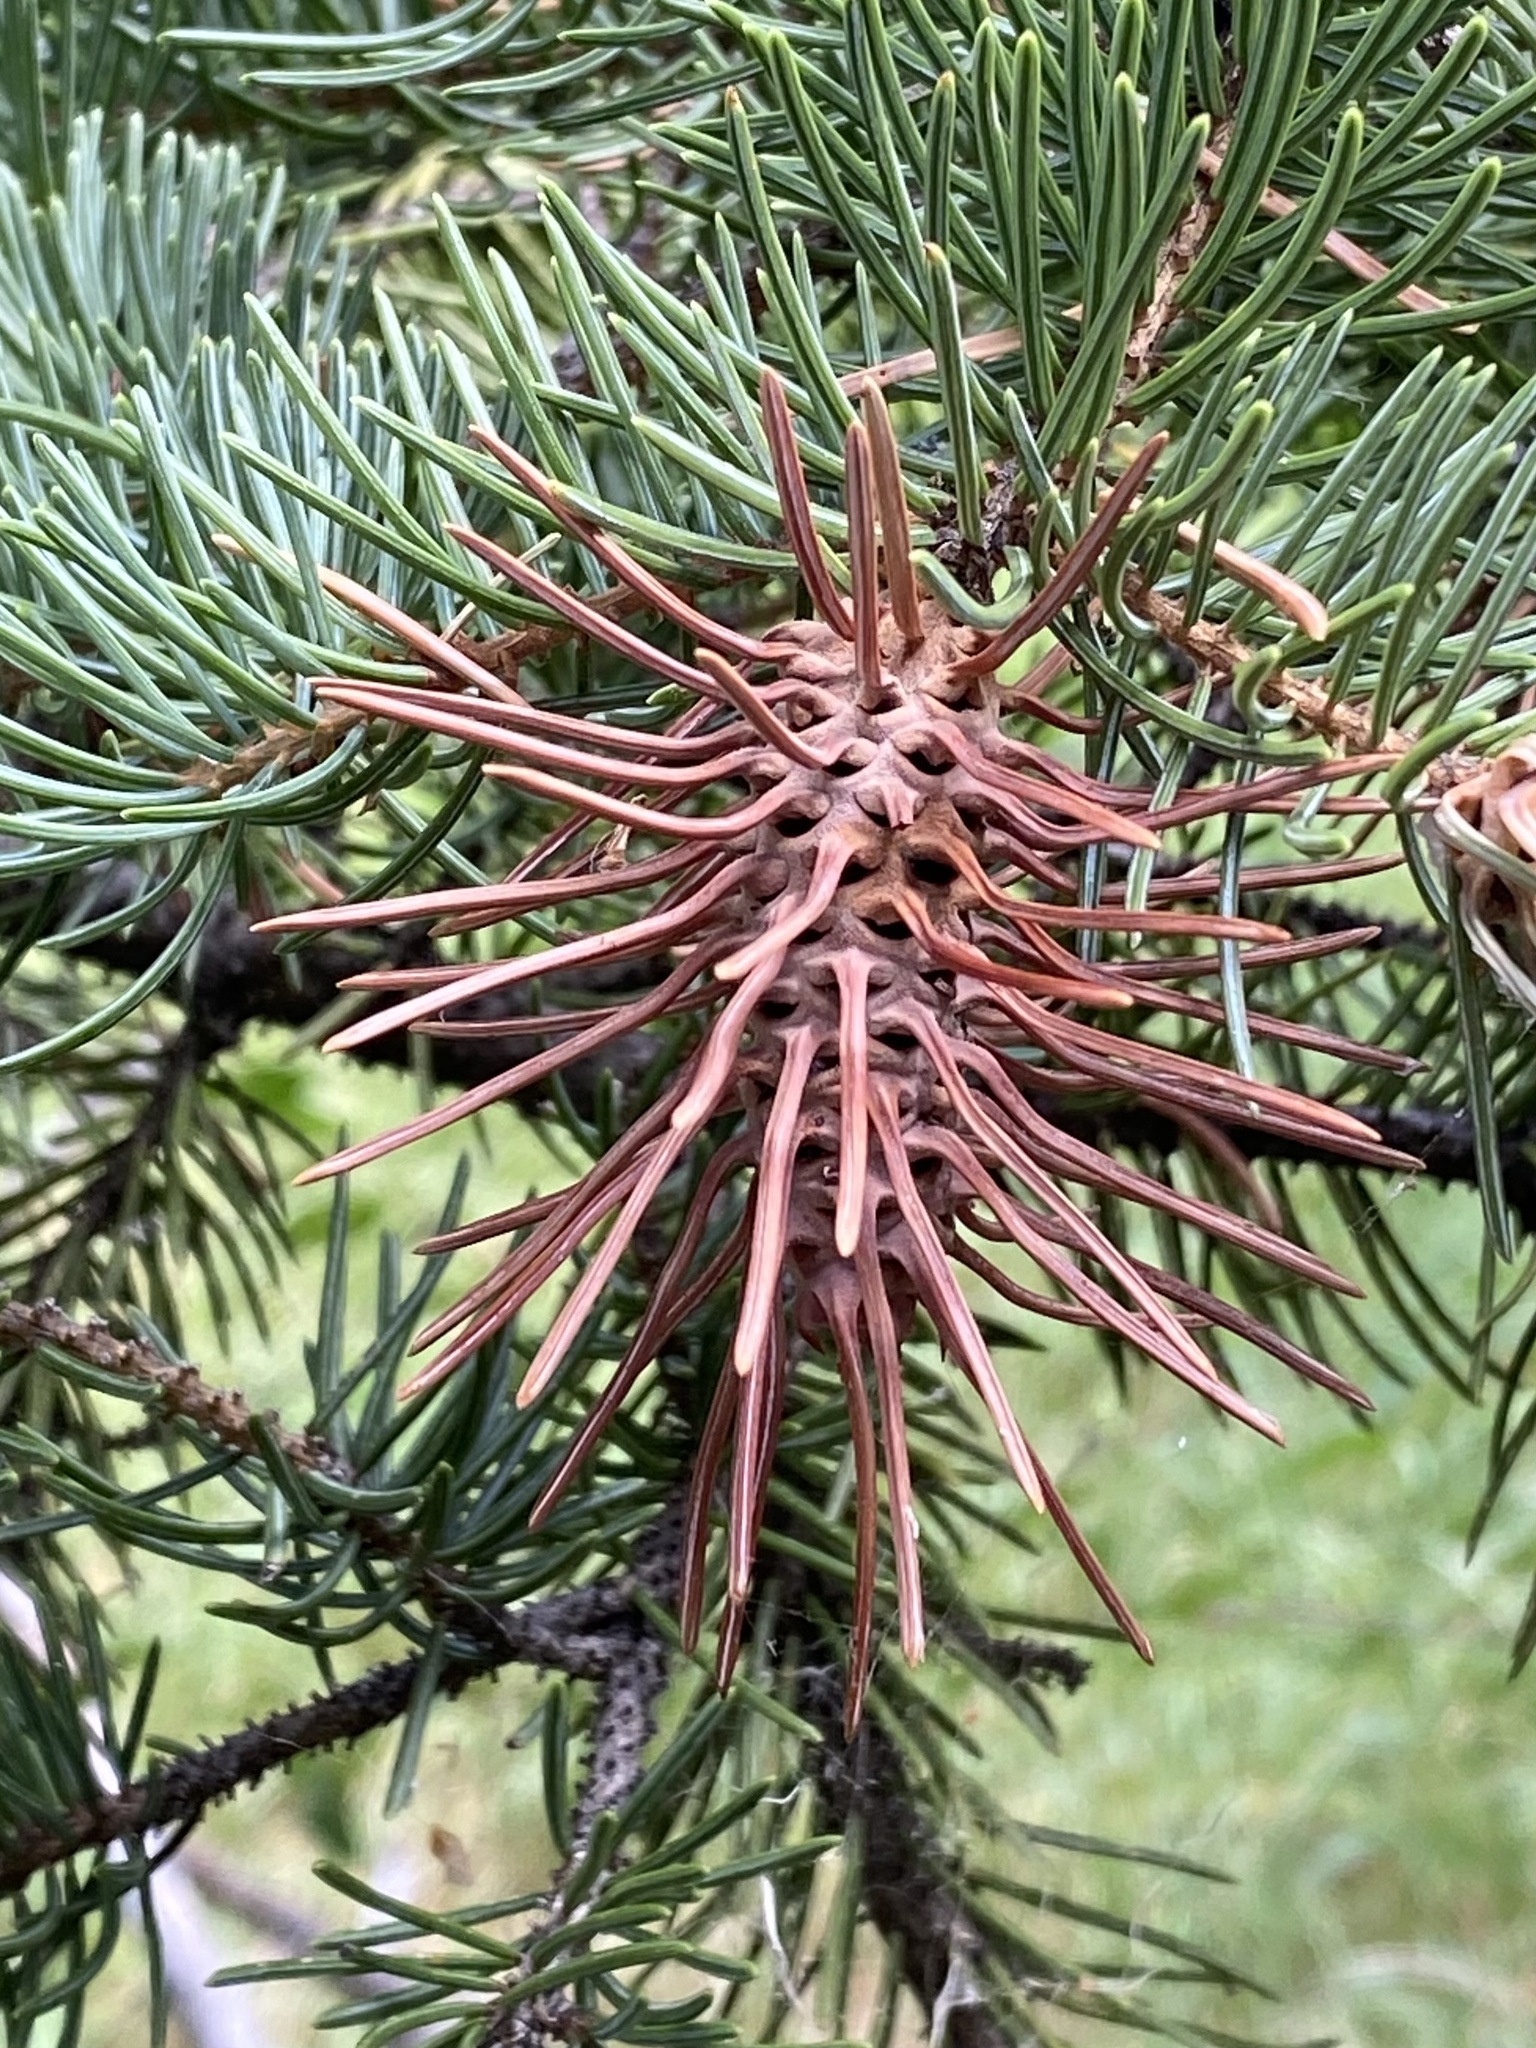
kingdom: Animalia
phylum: Arthropoda
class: Insecta
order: Hemiptera
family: Adelgidae
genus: Adelges
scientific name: Adelges cooleyi
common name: Cooley spruce gall adelgid
